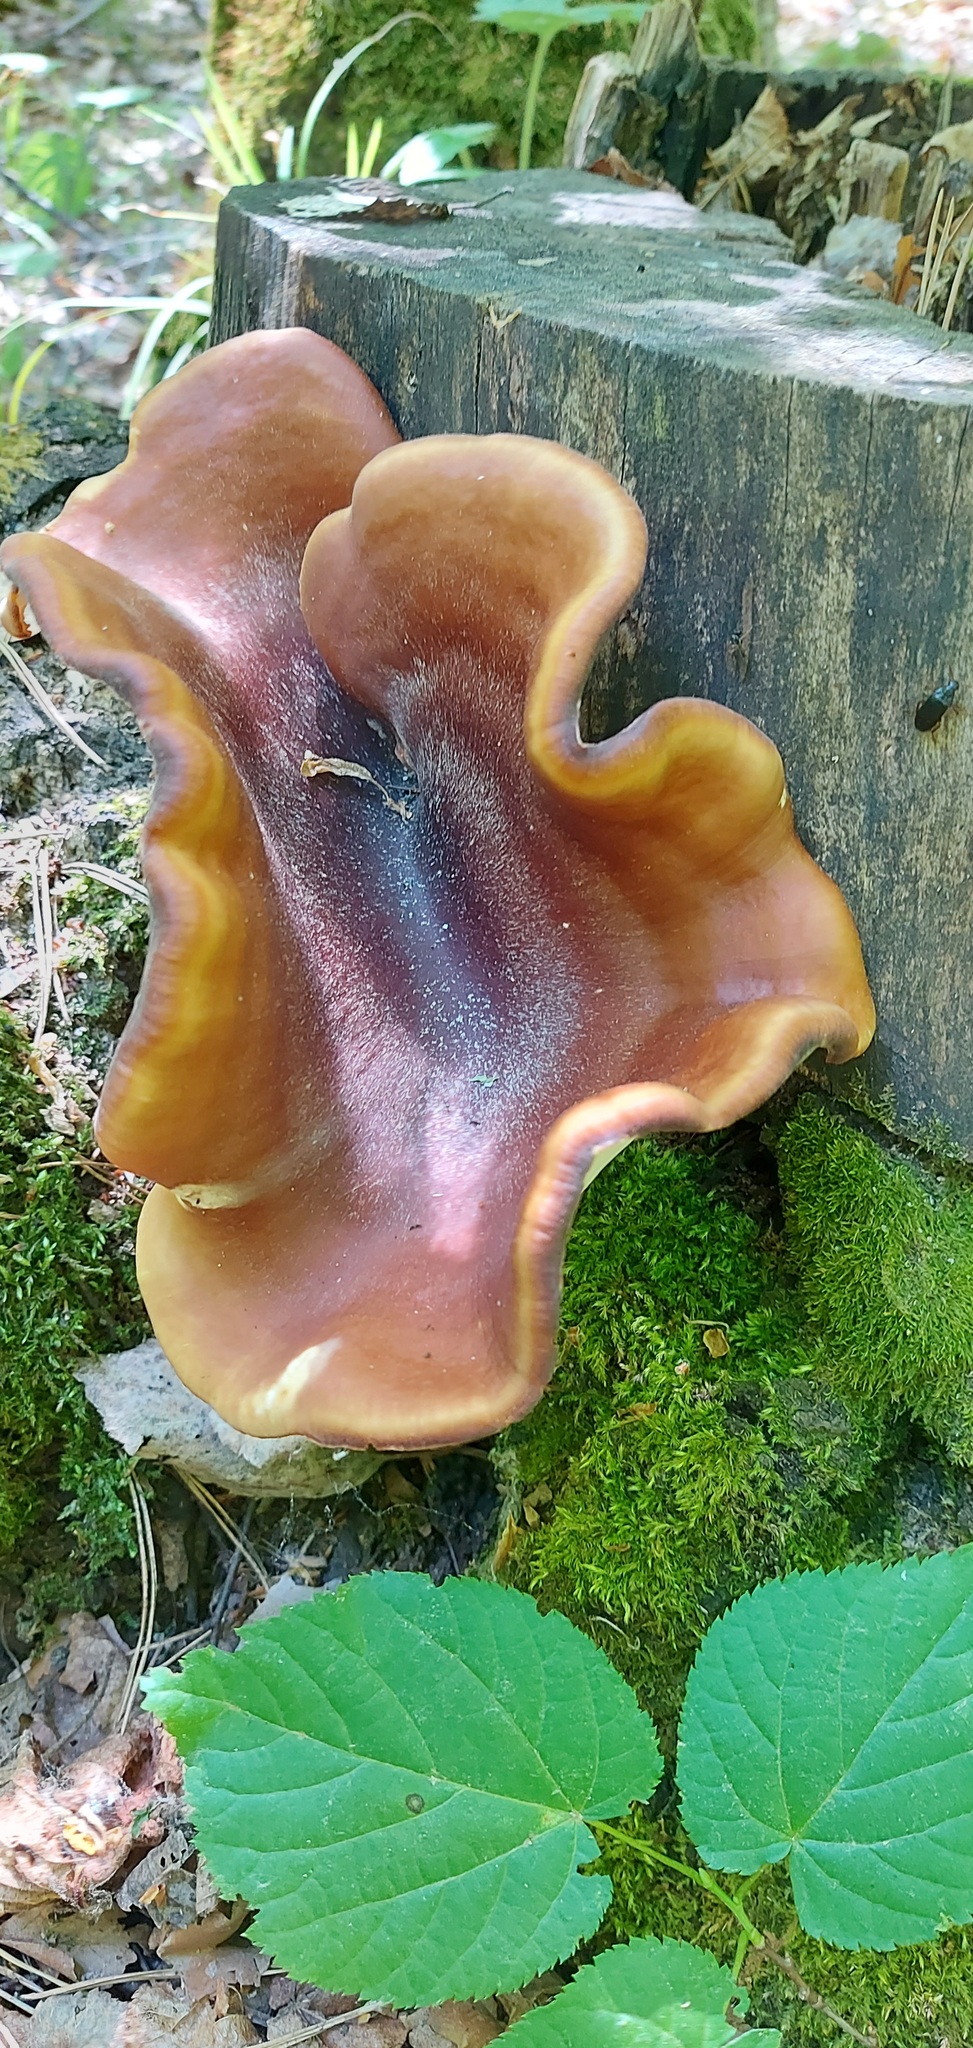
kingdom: Fungi
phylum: Basidiomycota
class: Agaricomycetes
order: Polyporales
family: Polyporaceae
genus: Picipes
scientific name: Picipes badius
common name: Bay polypore
